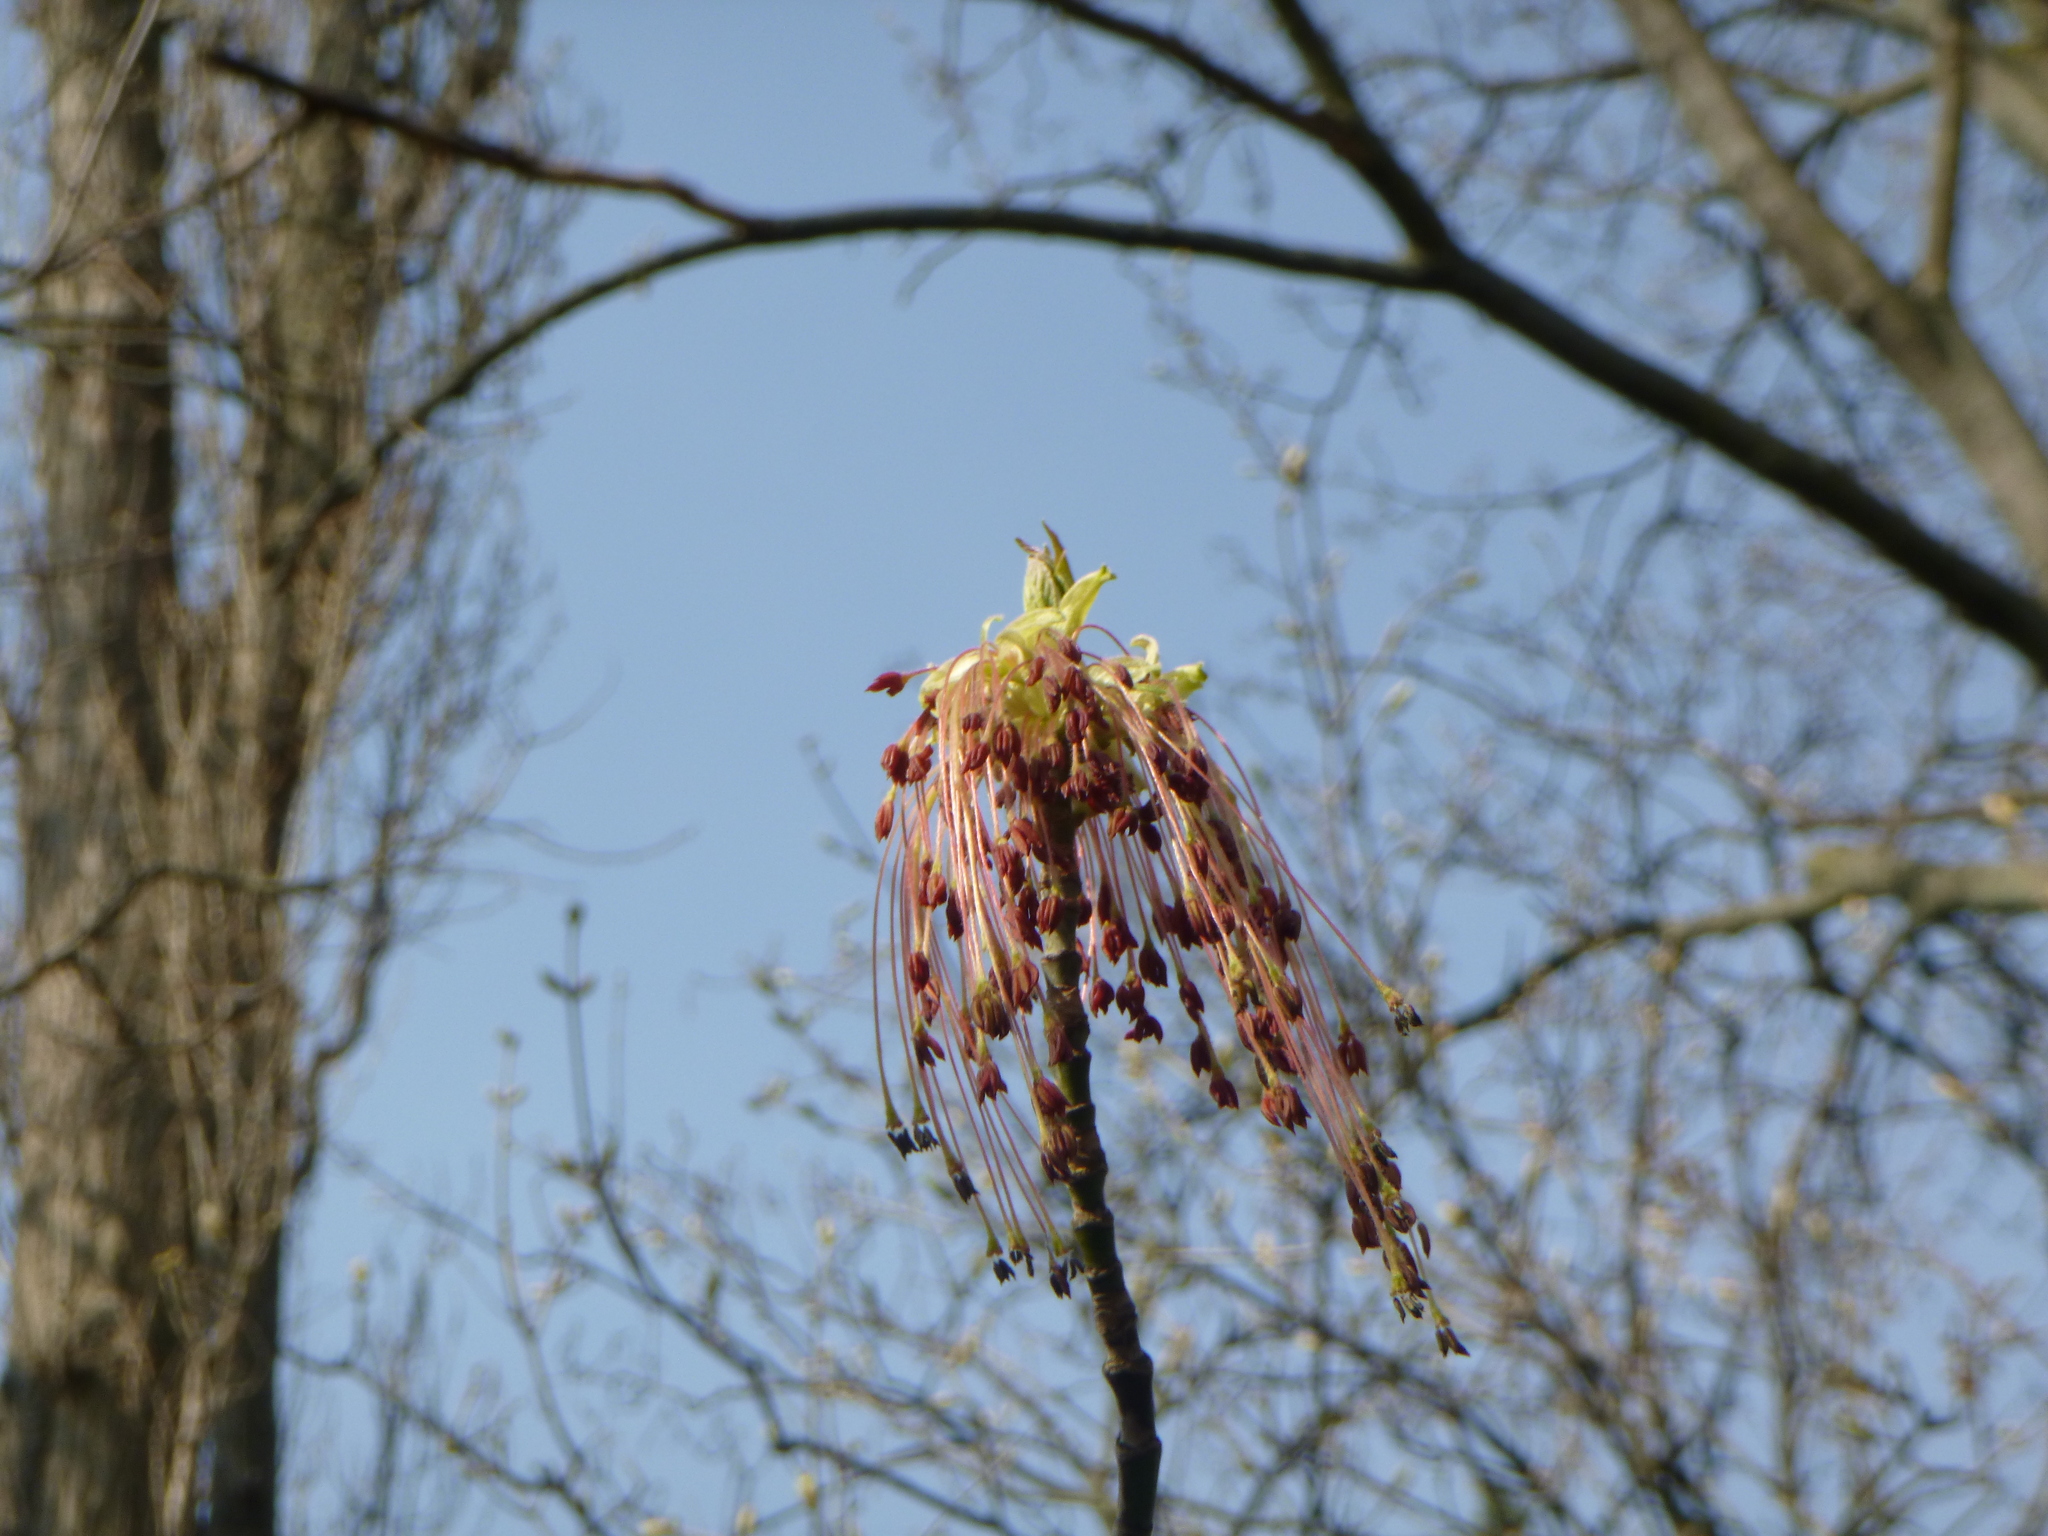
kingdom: Plantae
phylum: Tracheophyta
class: Magnoliopsida
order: Sapindales
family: Sapindaceae
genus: Acer
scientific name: Acer negundo
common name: Ashleaf maple
